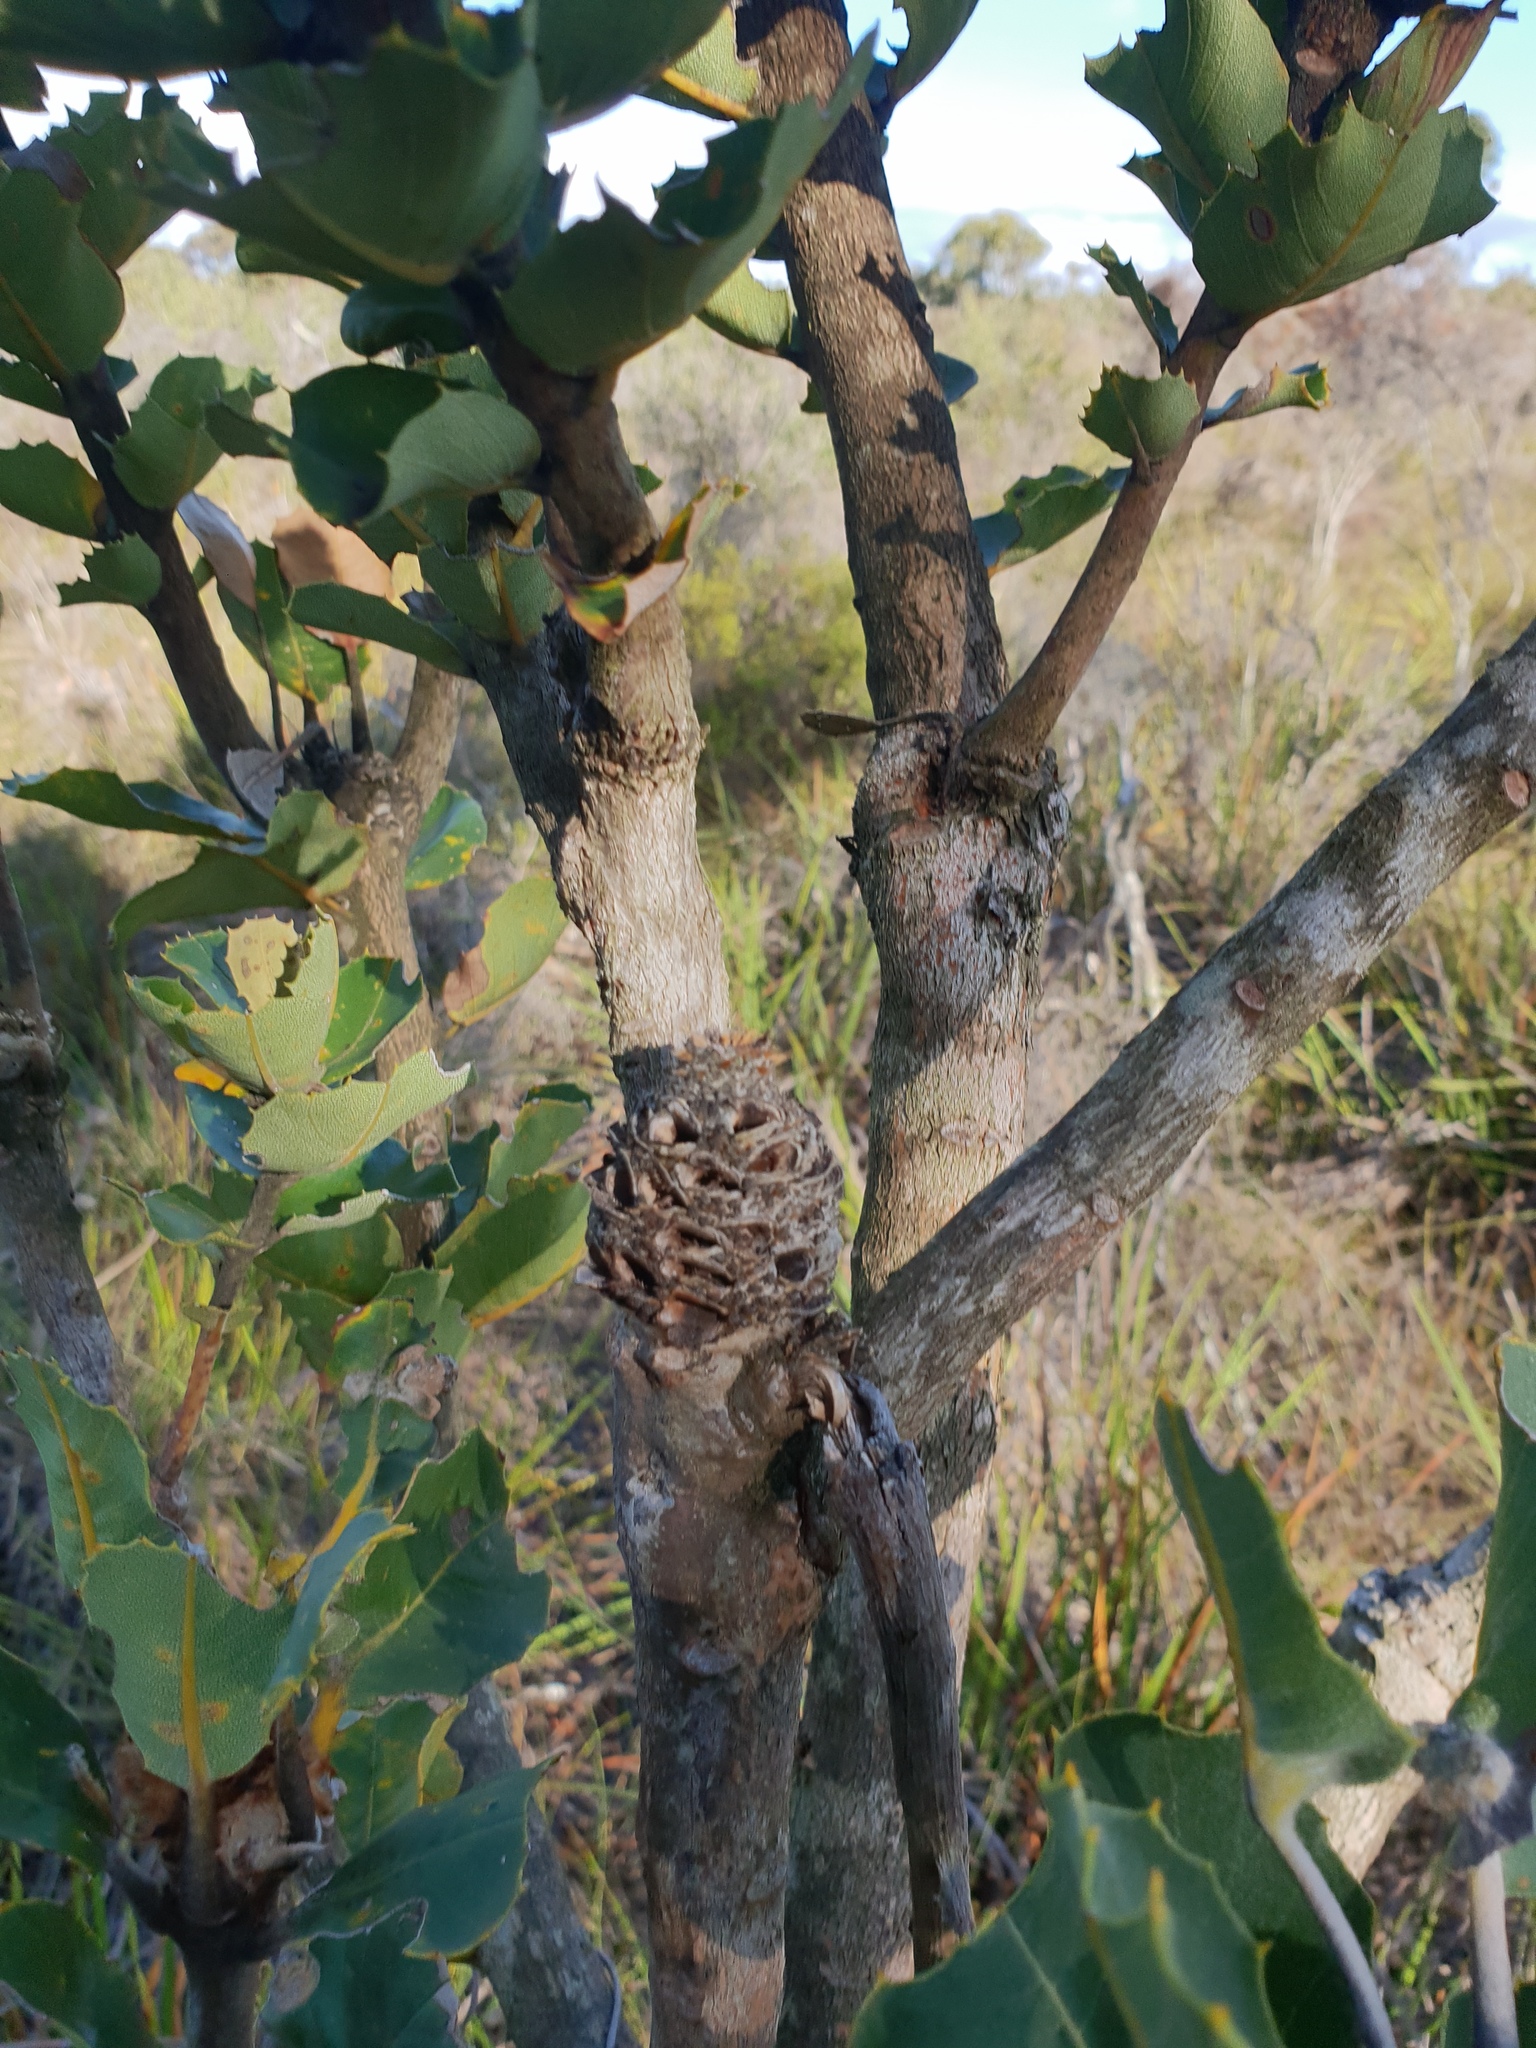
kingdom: Plantae
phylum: Tracheophyta
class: Magnoliopsida
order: Proteales
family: Proteaceae
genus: Banksia
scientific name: Banksia coccinea
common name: Scarlet banksia
